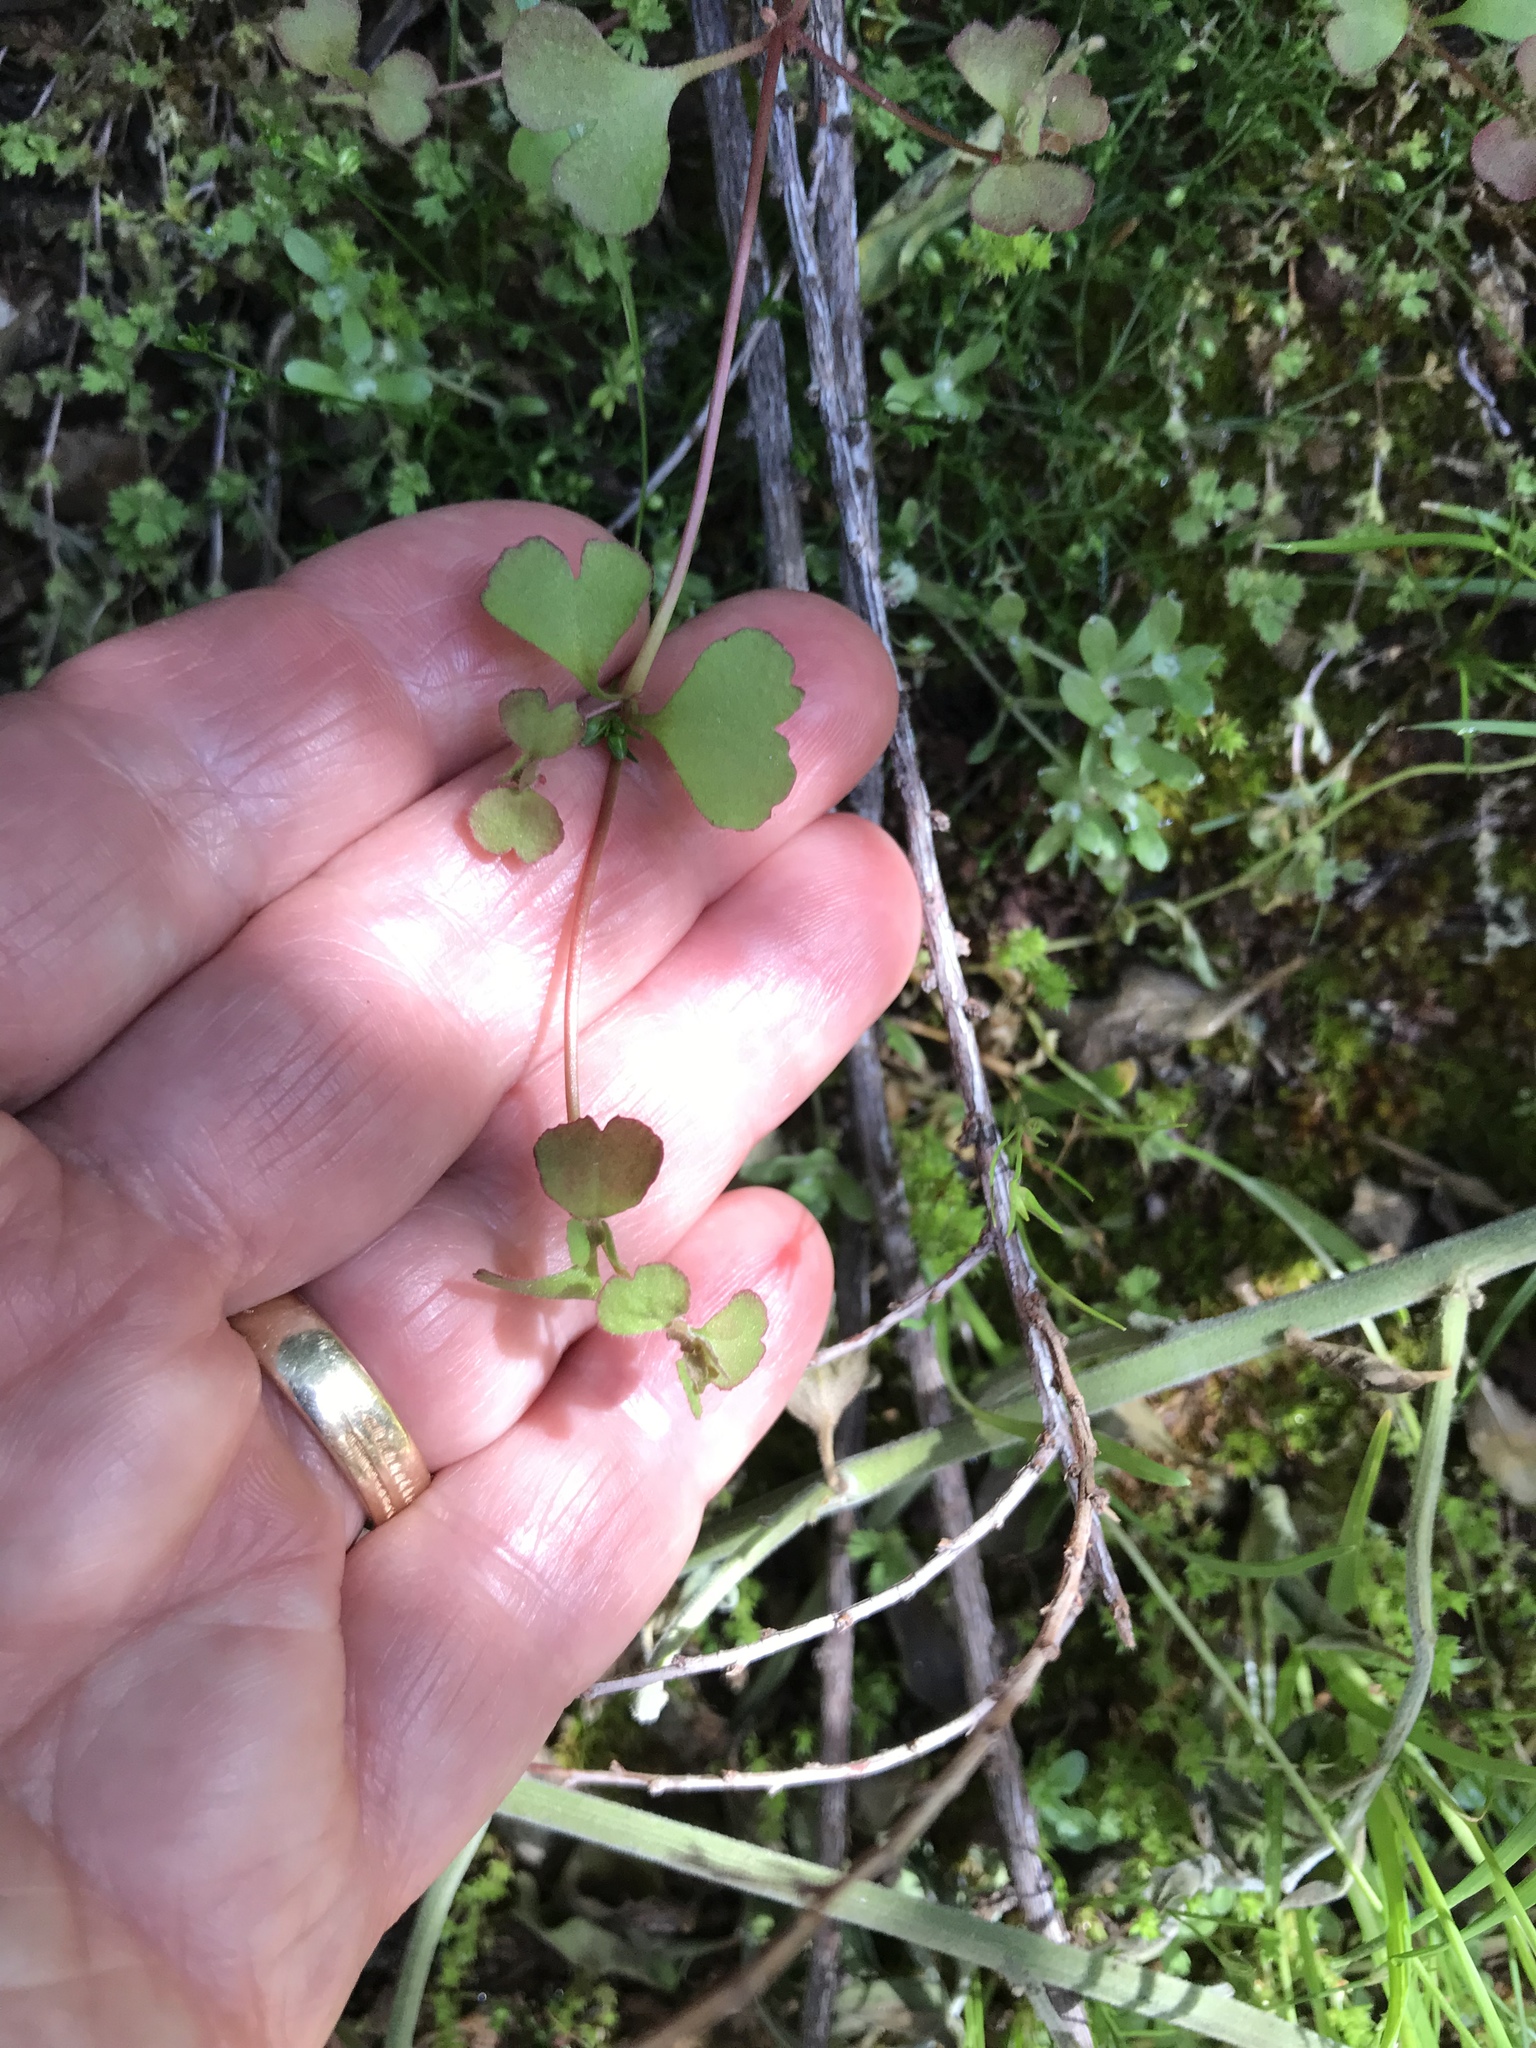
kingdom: Plantae
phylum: Tracheophyta
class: Magnoliopsida
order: Caryophyllales
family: Polygonaceae
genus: Pterostegia
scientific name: Pterostegia drymarioides
